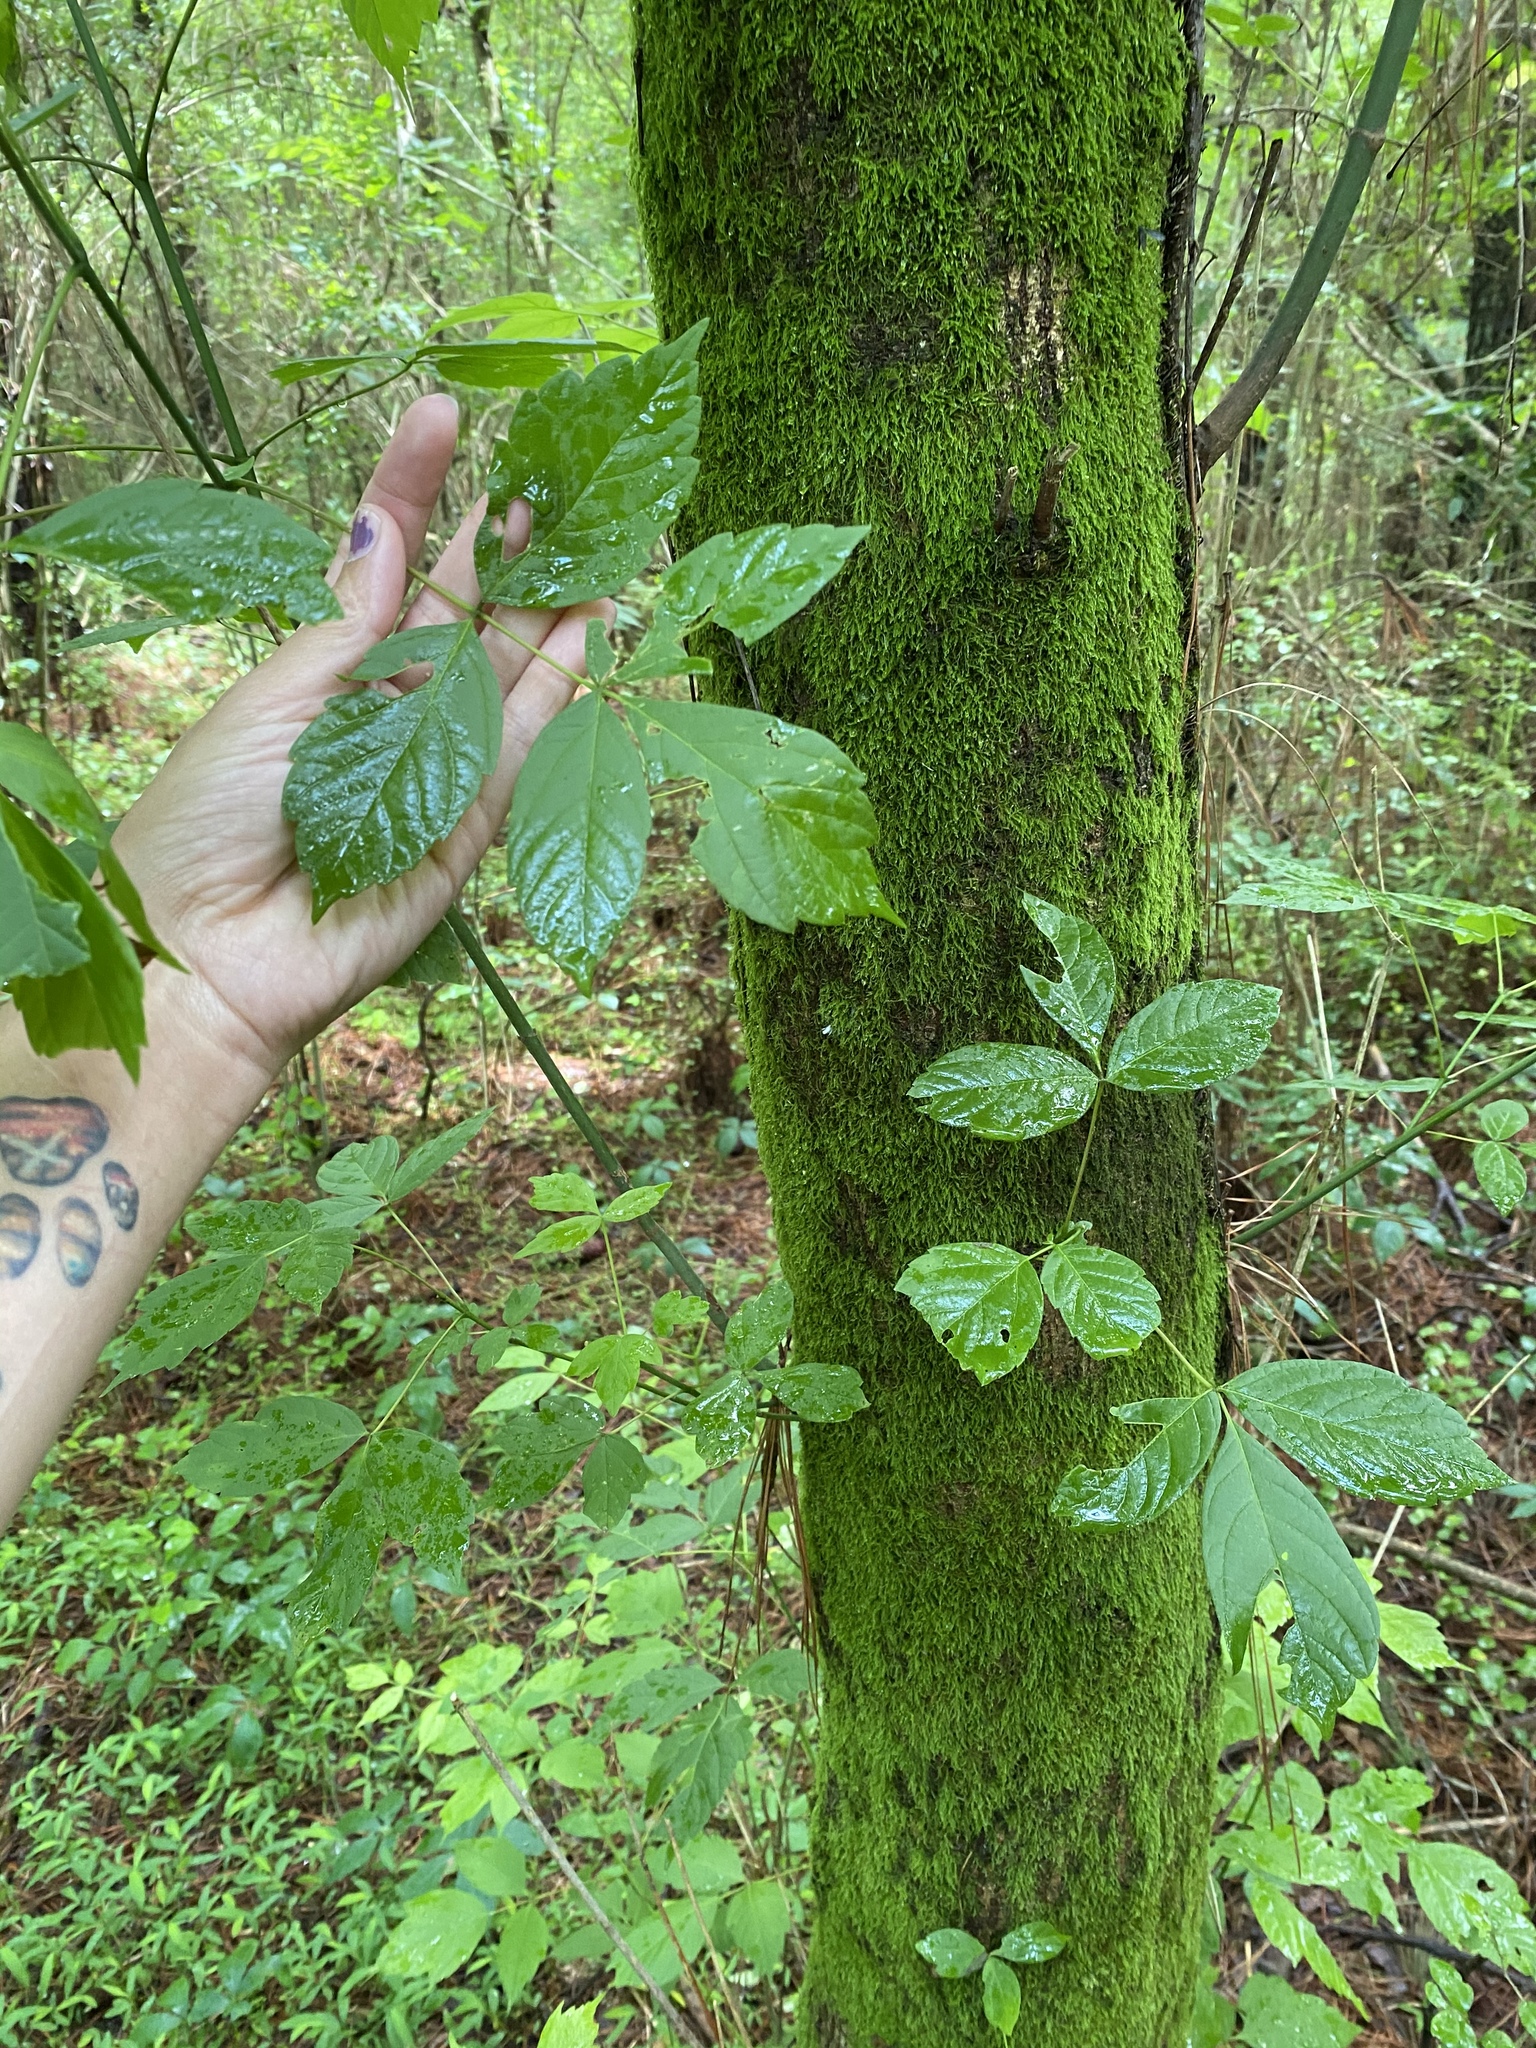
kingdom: Plantae
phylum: Tracheophyta
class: Magnoliopsida
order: Sapindales
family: Sapindaceae
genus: Acer
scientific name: Acer negundo
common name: Ashleaf maple
